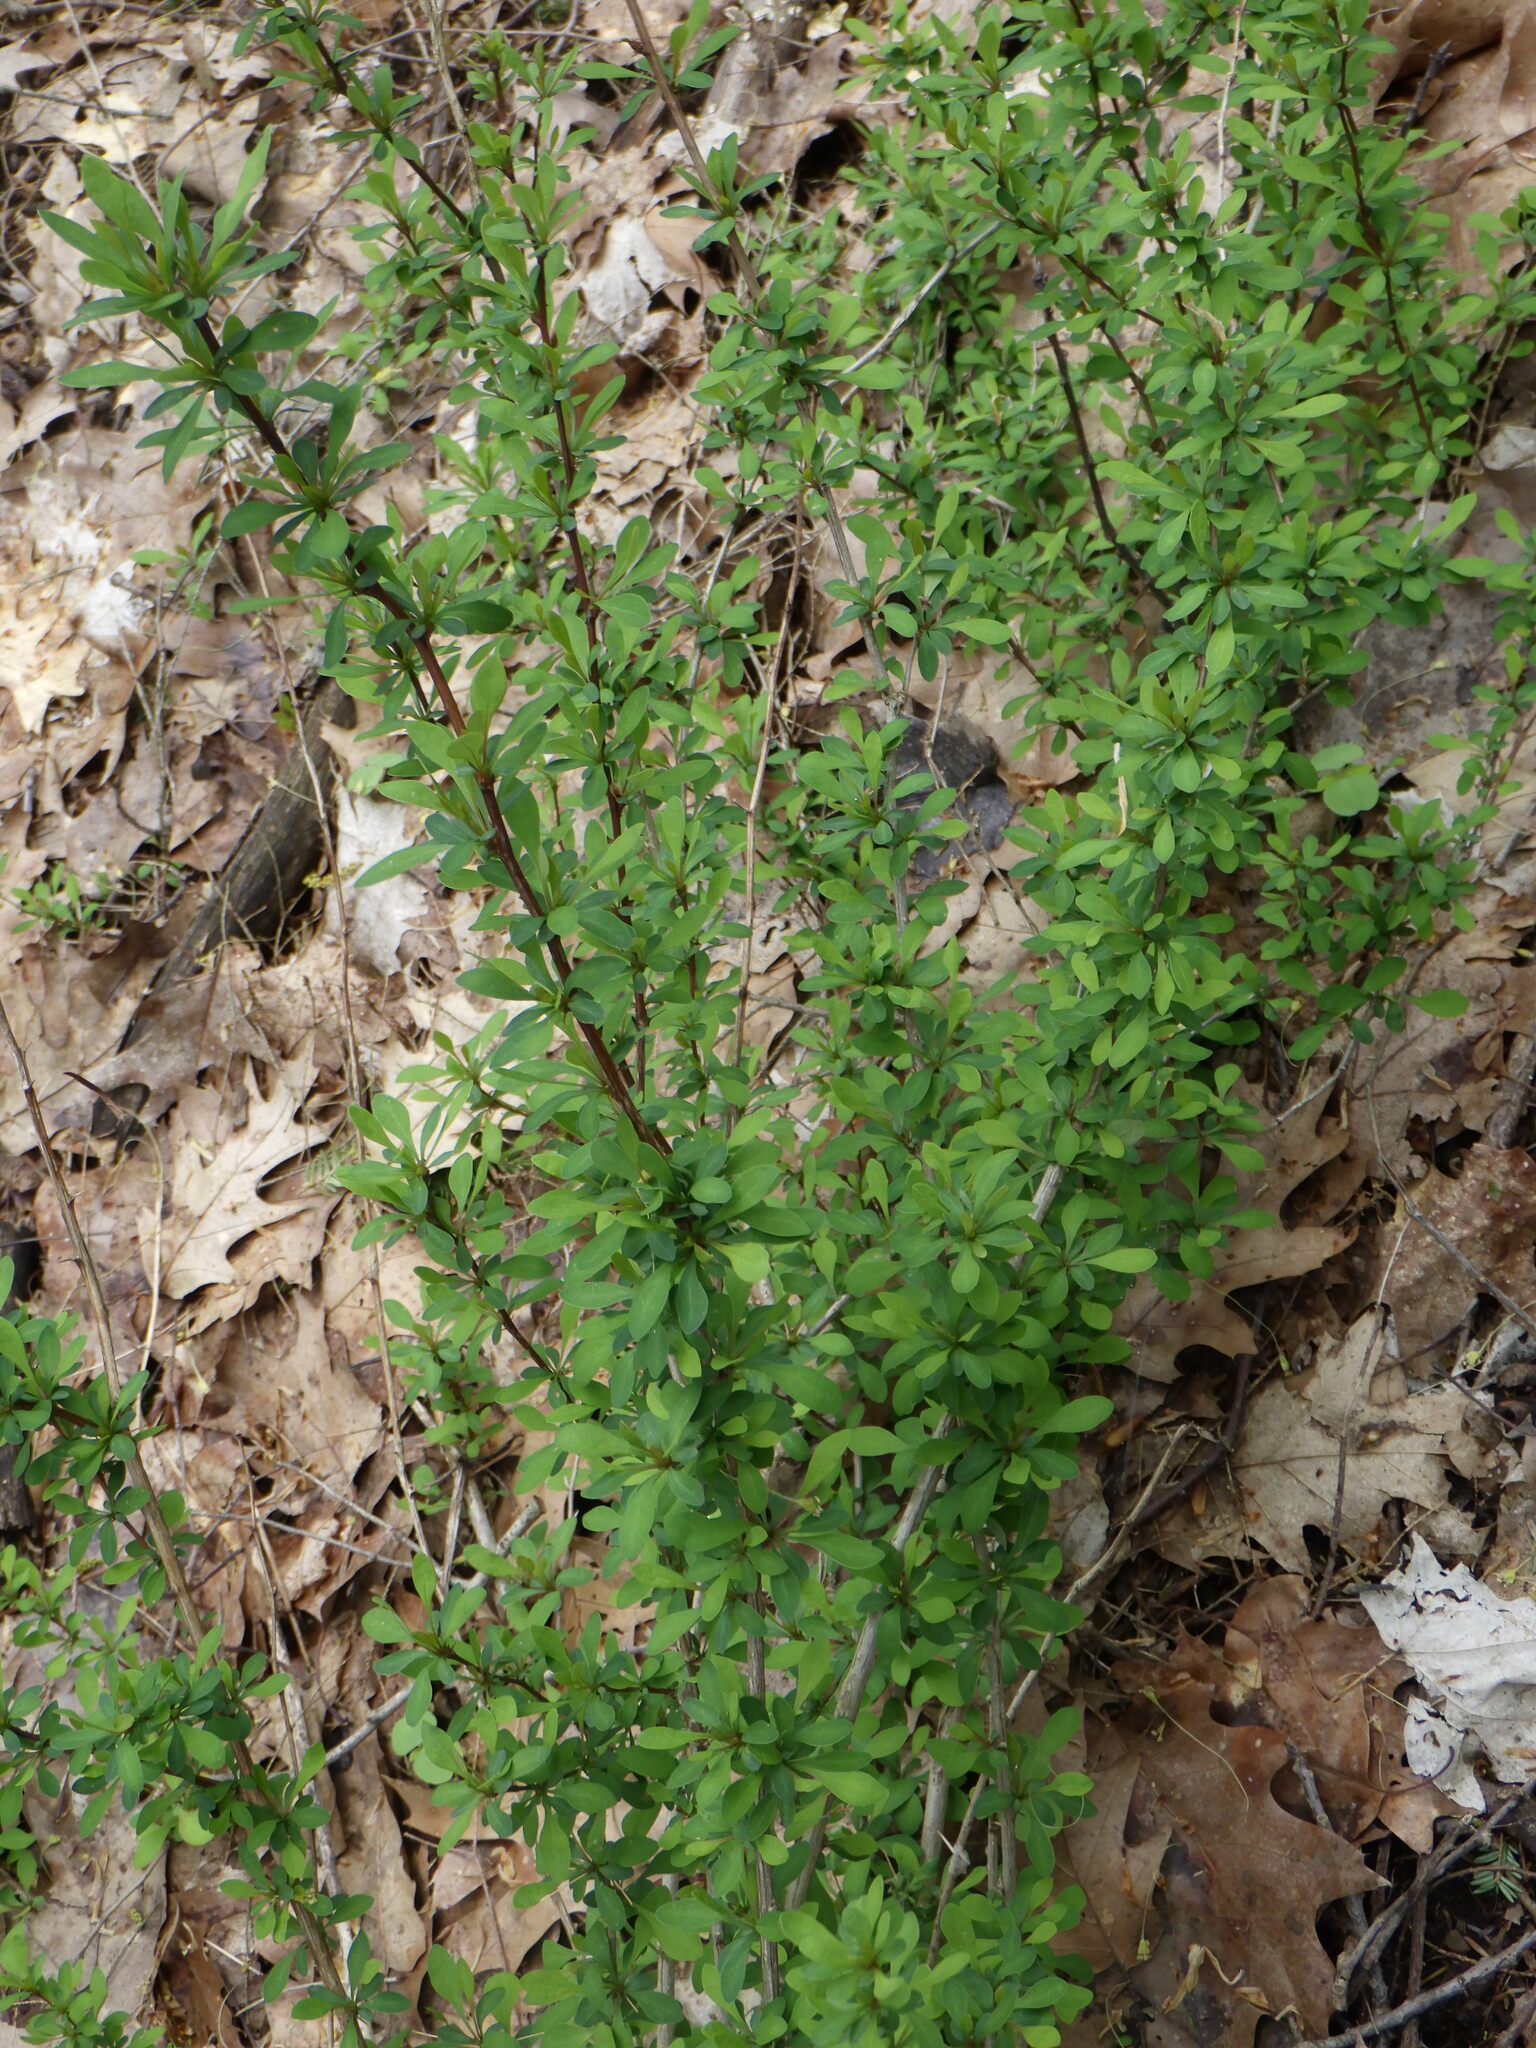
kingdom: Plantae
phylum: Tracheophyta
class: Magnoliopsida
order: Ranunculales
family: Berberidaceae
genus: Berberis
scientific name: Berberis thunbergii
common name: Japanese barberry
